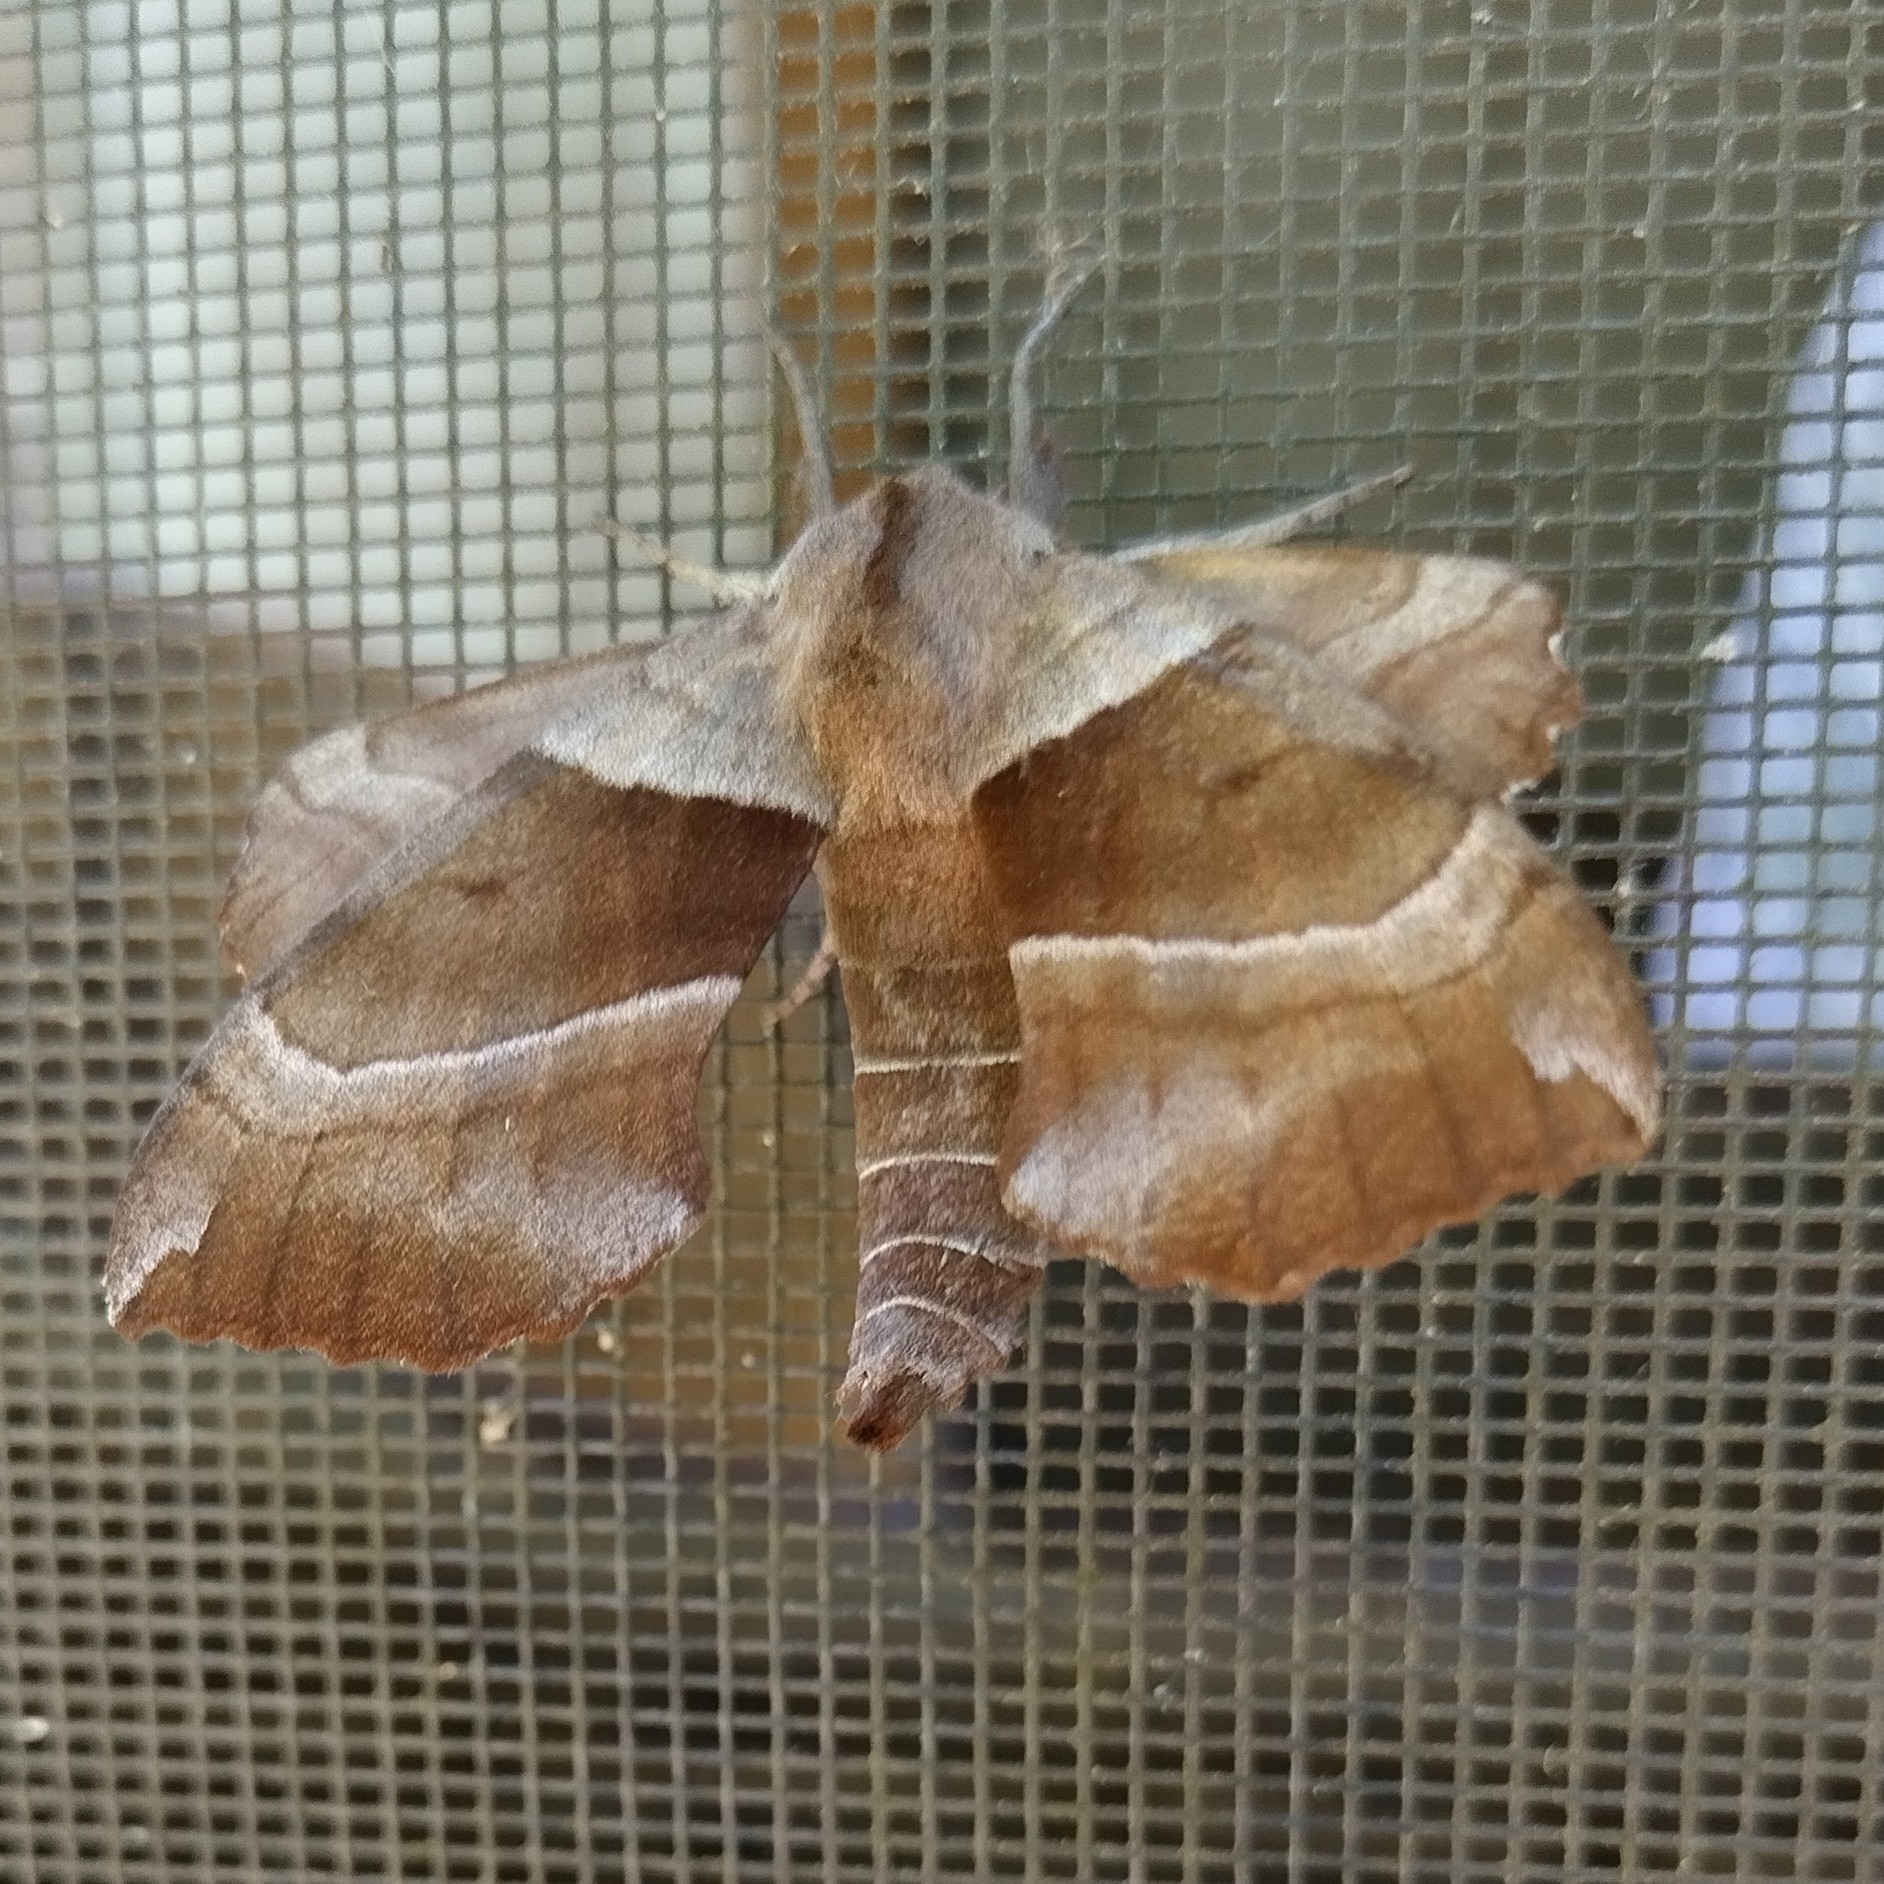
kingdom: Animalia
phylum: Arthropoda
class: Insecta
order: Lepidoptera
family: Sphingidae
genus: Amorpha
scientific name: Amorpha juglandis
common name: Walnut sphinx
